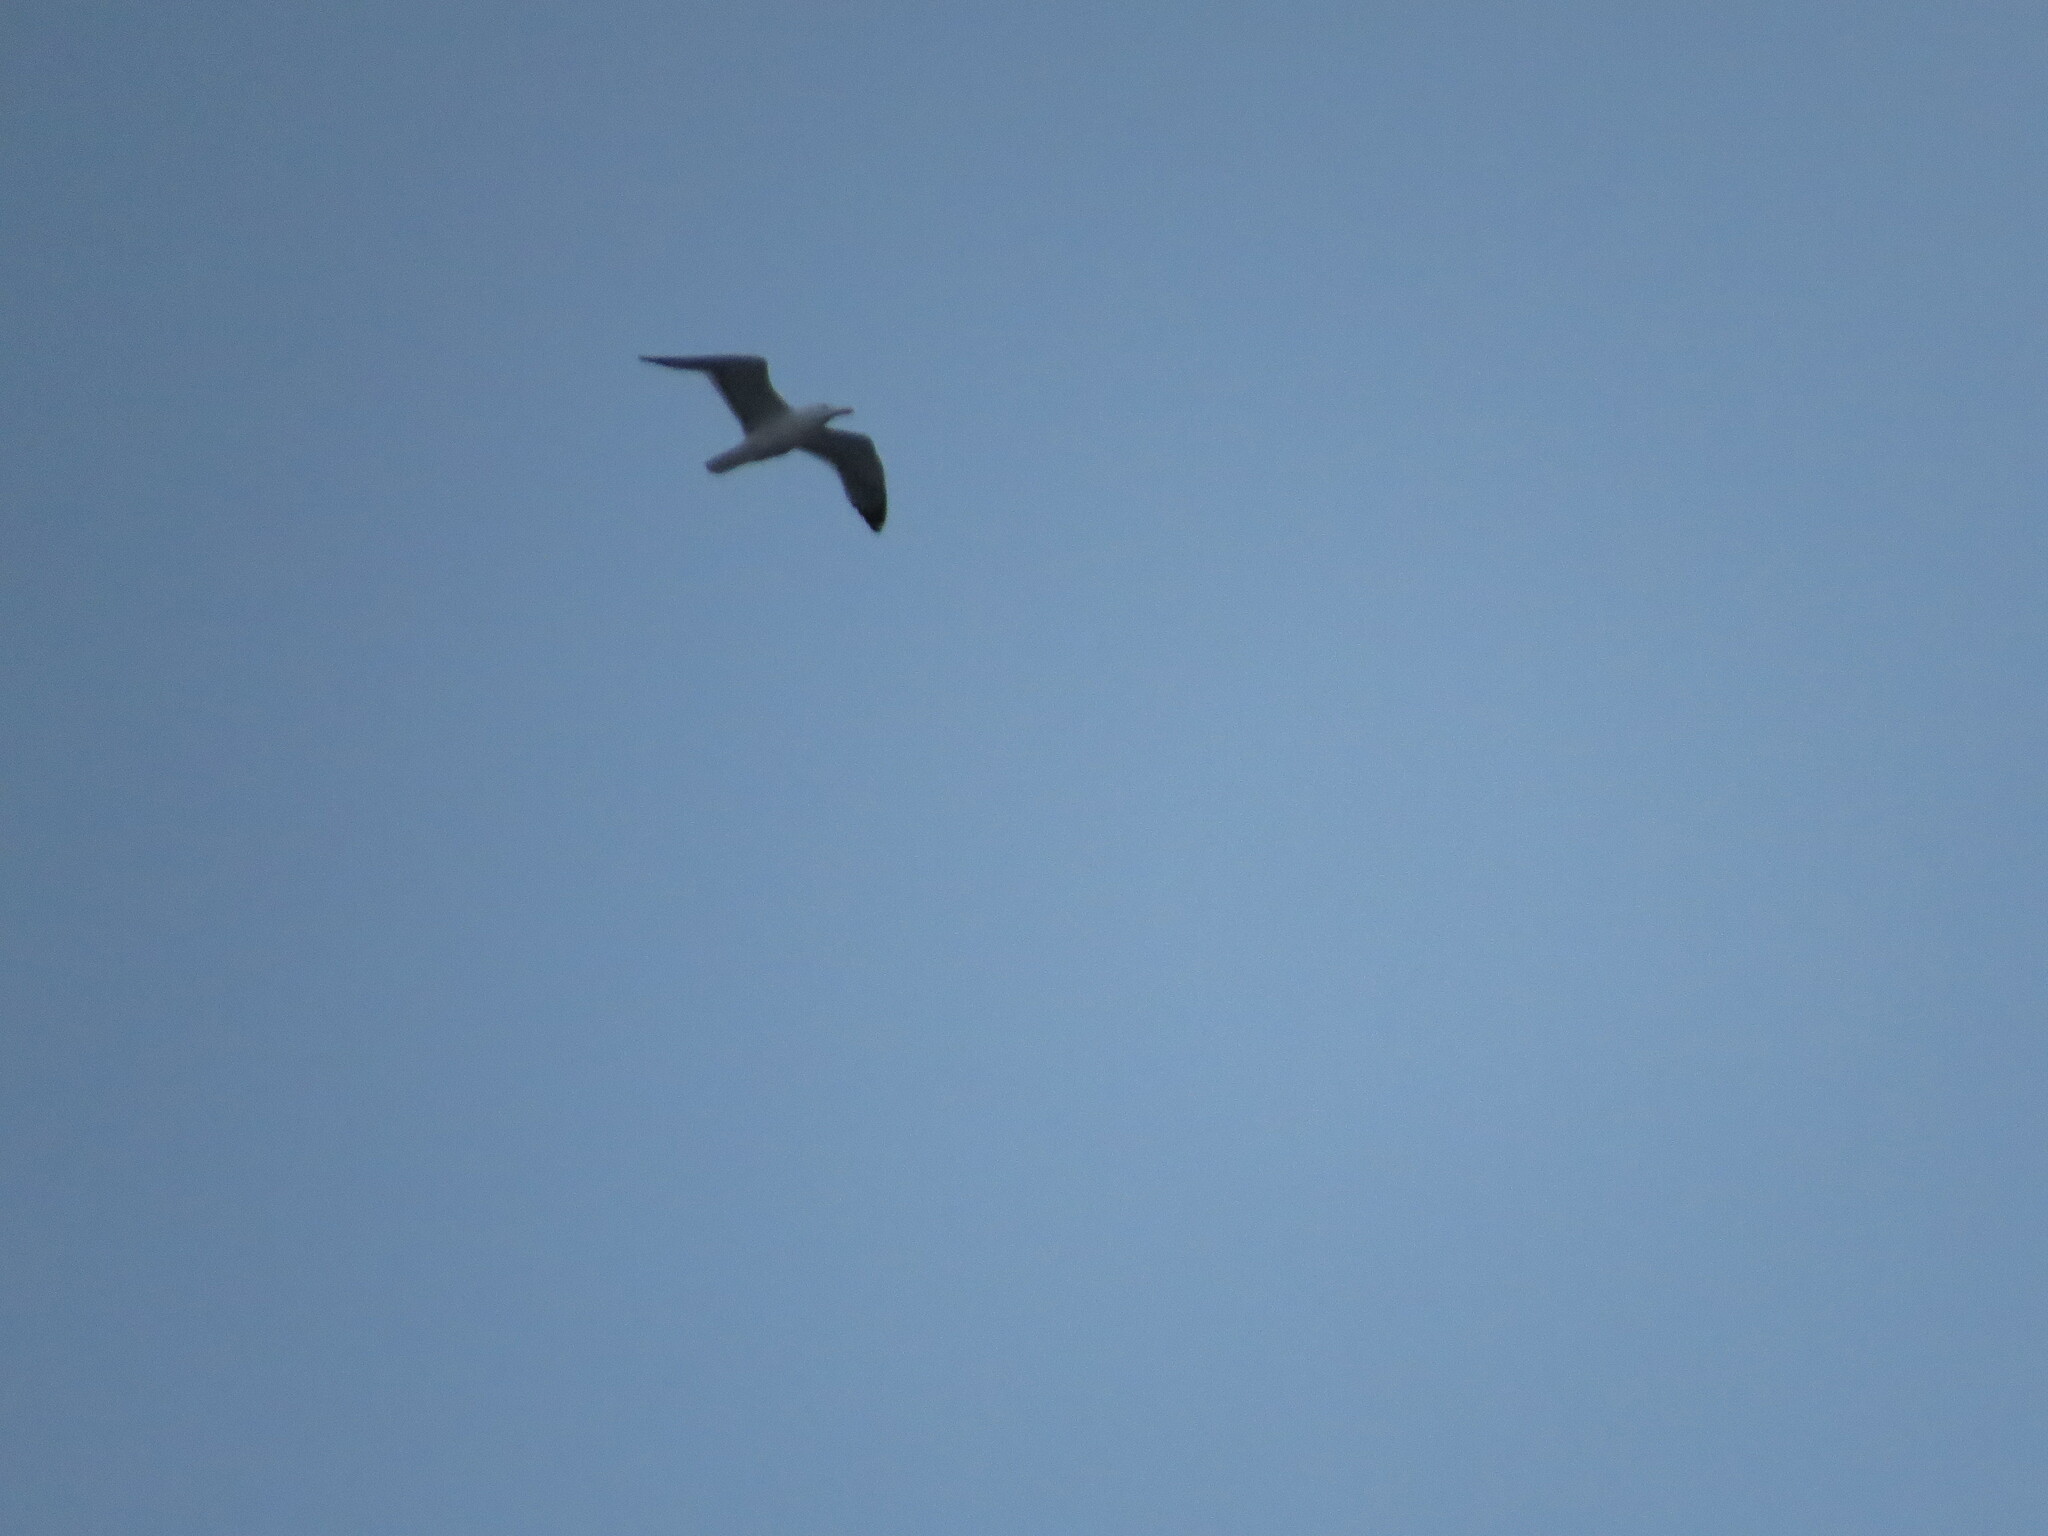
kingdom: Animalia
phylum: Chordata
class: Aves
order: Charadriiformes
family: Laridae
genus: Larus
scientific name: Larus fuscus
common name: Lesser black-backed gull
